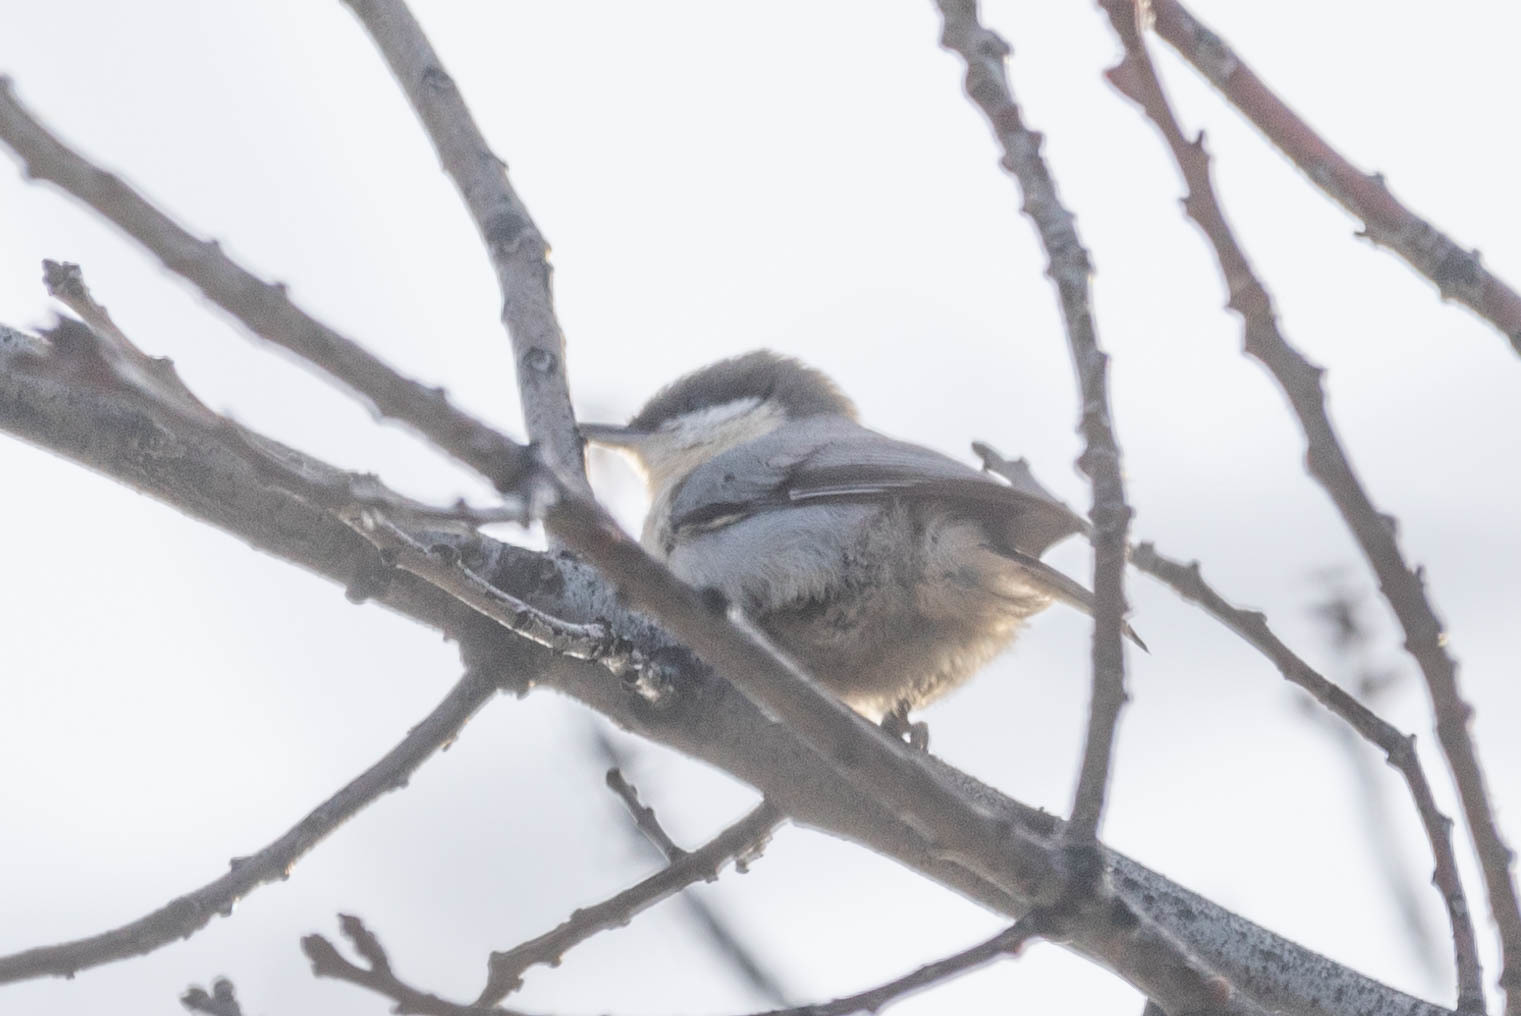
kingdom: Animalia
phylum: Chordata
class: Aves
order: Passeriformes
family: Sittidae
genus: Sitta
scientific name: Sitta pygmaea
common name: Pygmy nuthatch
